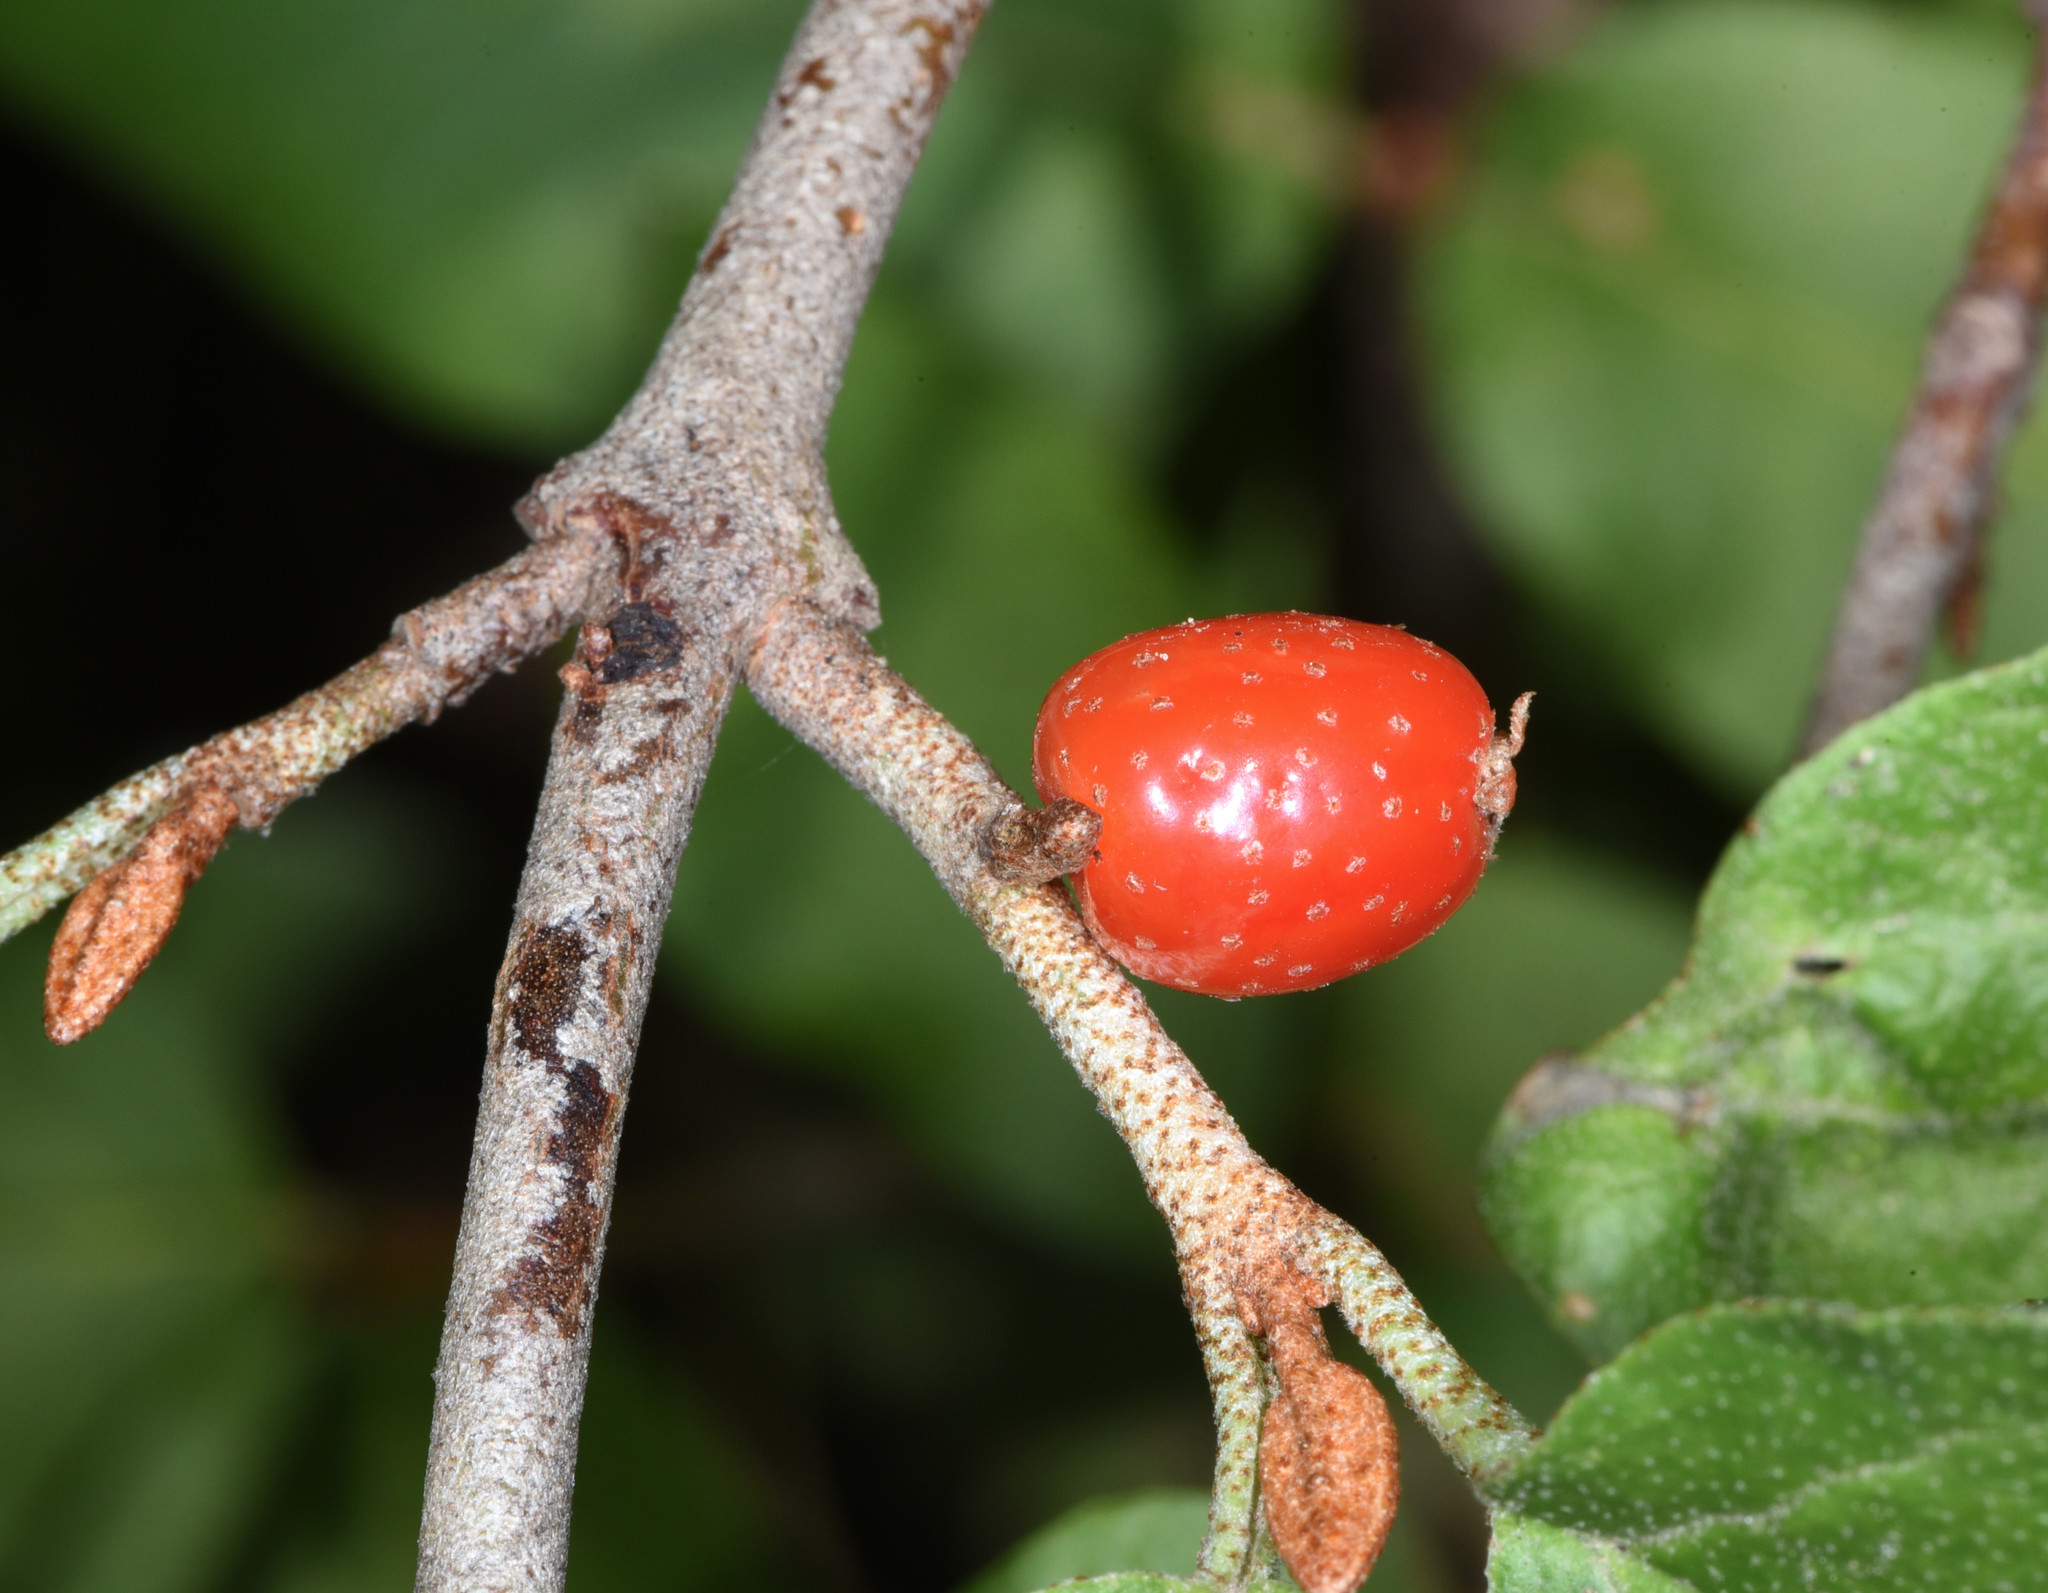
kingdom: Plantae
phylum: Tracheophyta
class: Magnoliopsida
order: Rosales
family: Elaeagnaceae
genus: Shepherdia
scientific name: Shepherdia canadensis
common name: Soapberry
